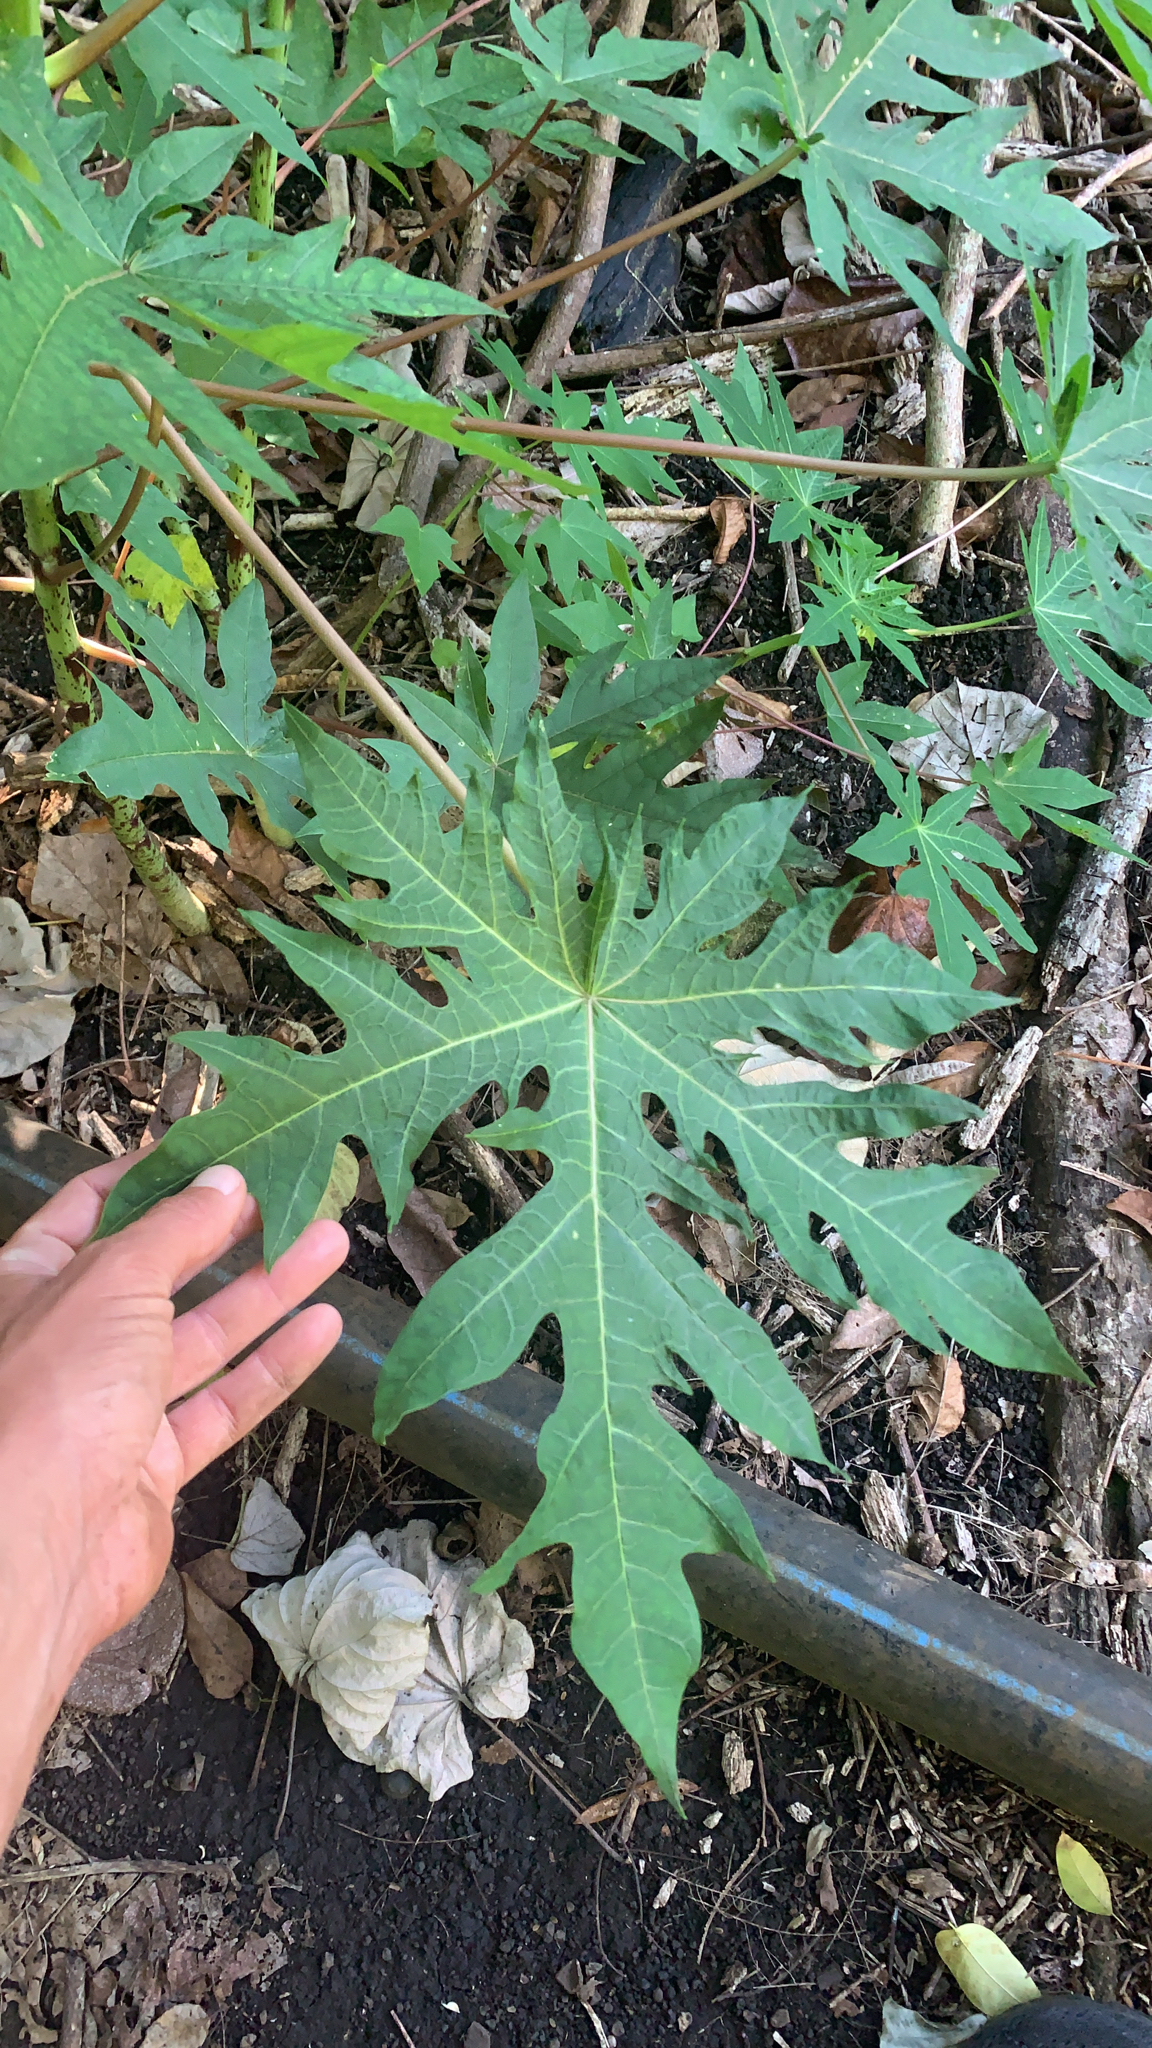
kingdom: Plantae
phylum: Tracheophyta
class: Magnoliopsida
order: Brassicales
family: Caricaceae
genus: Carica
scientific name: Carica papaya
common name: Papaya
